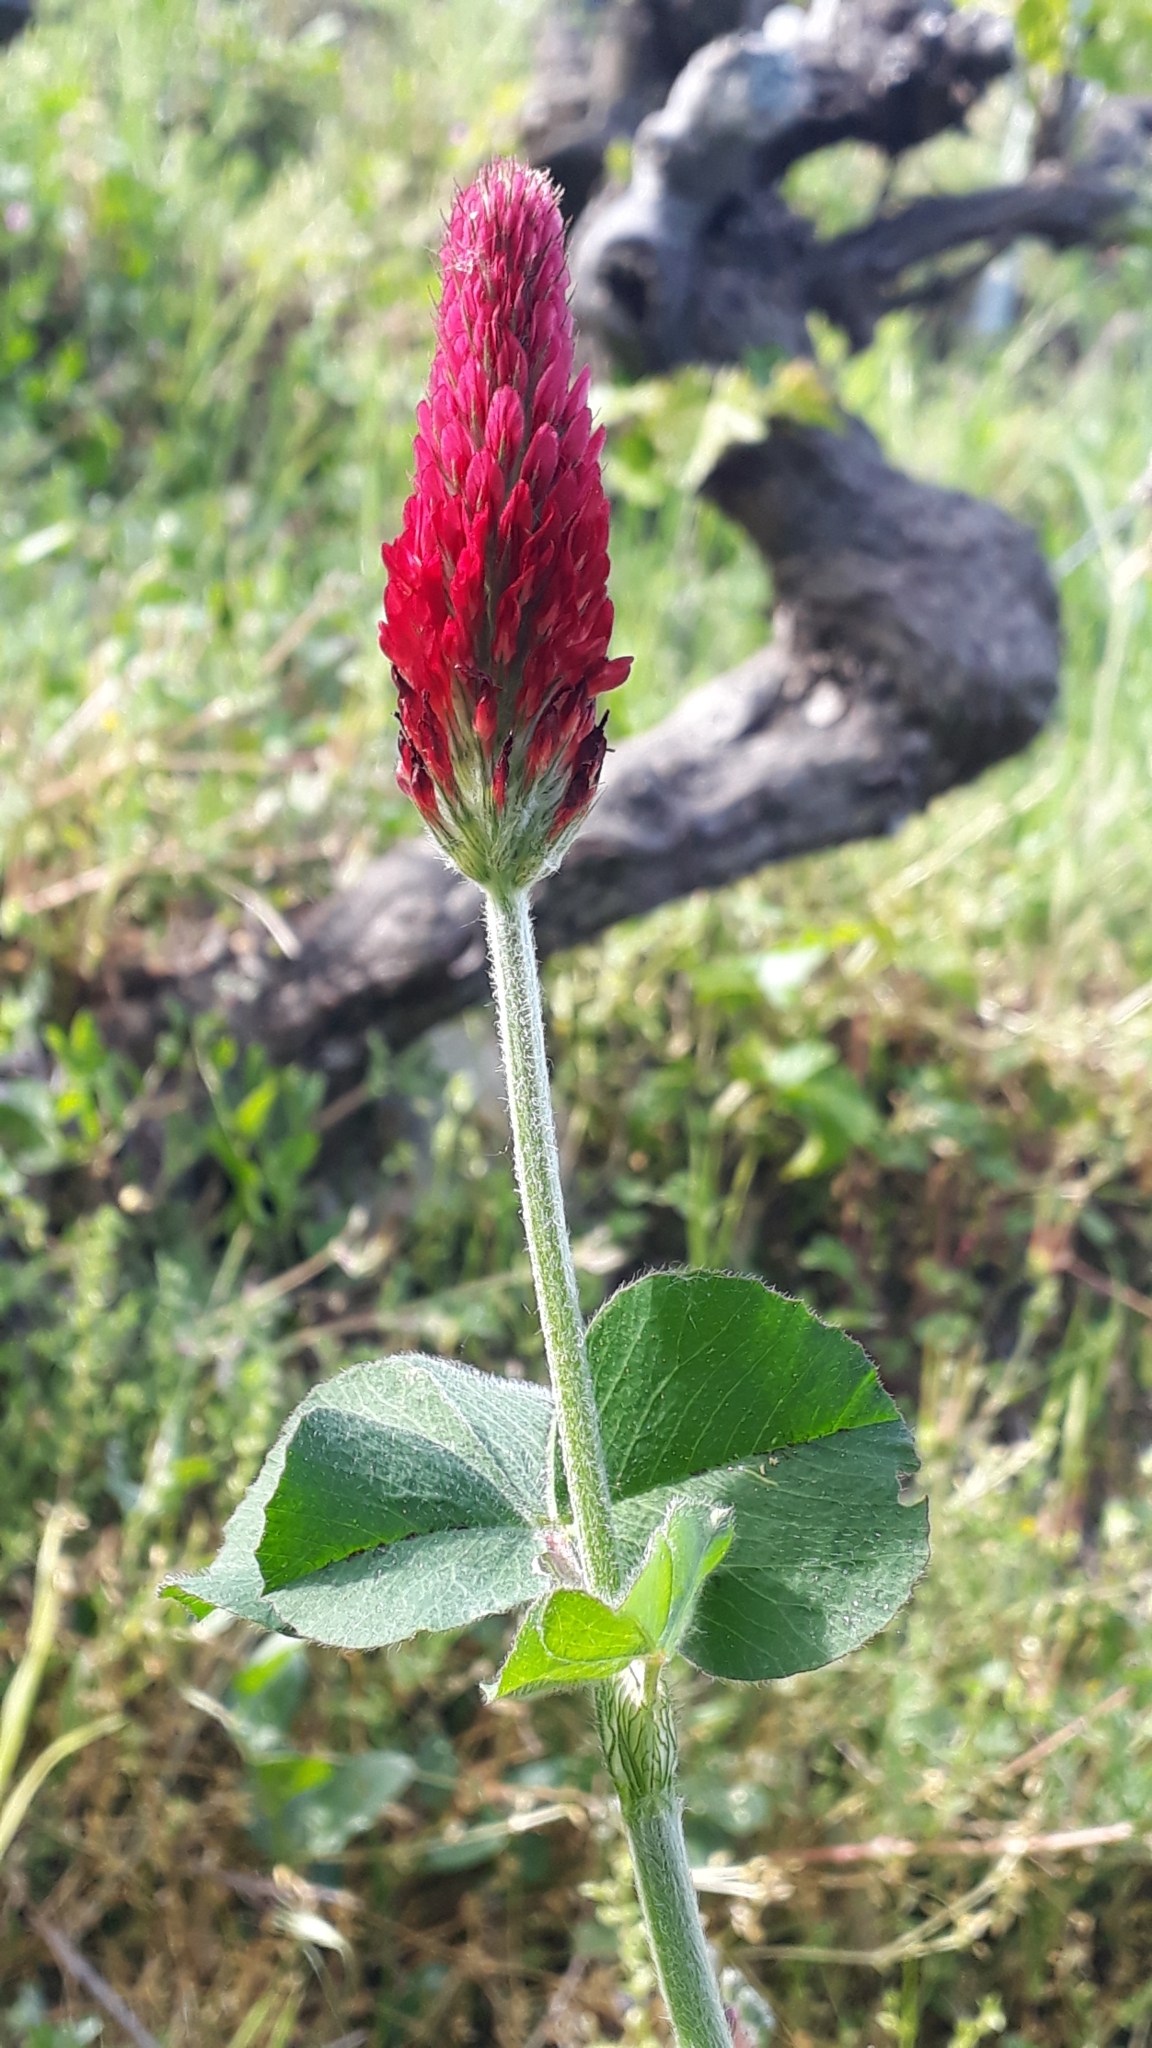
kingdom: Plantae
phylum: Tracheophyta
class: Magnoliopsida
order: Fabales
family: Fabaceae
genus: Trifolium
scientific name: Trifolium incarnatum
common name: Crimson clover
